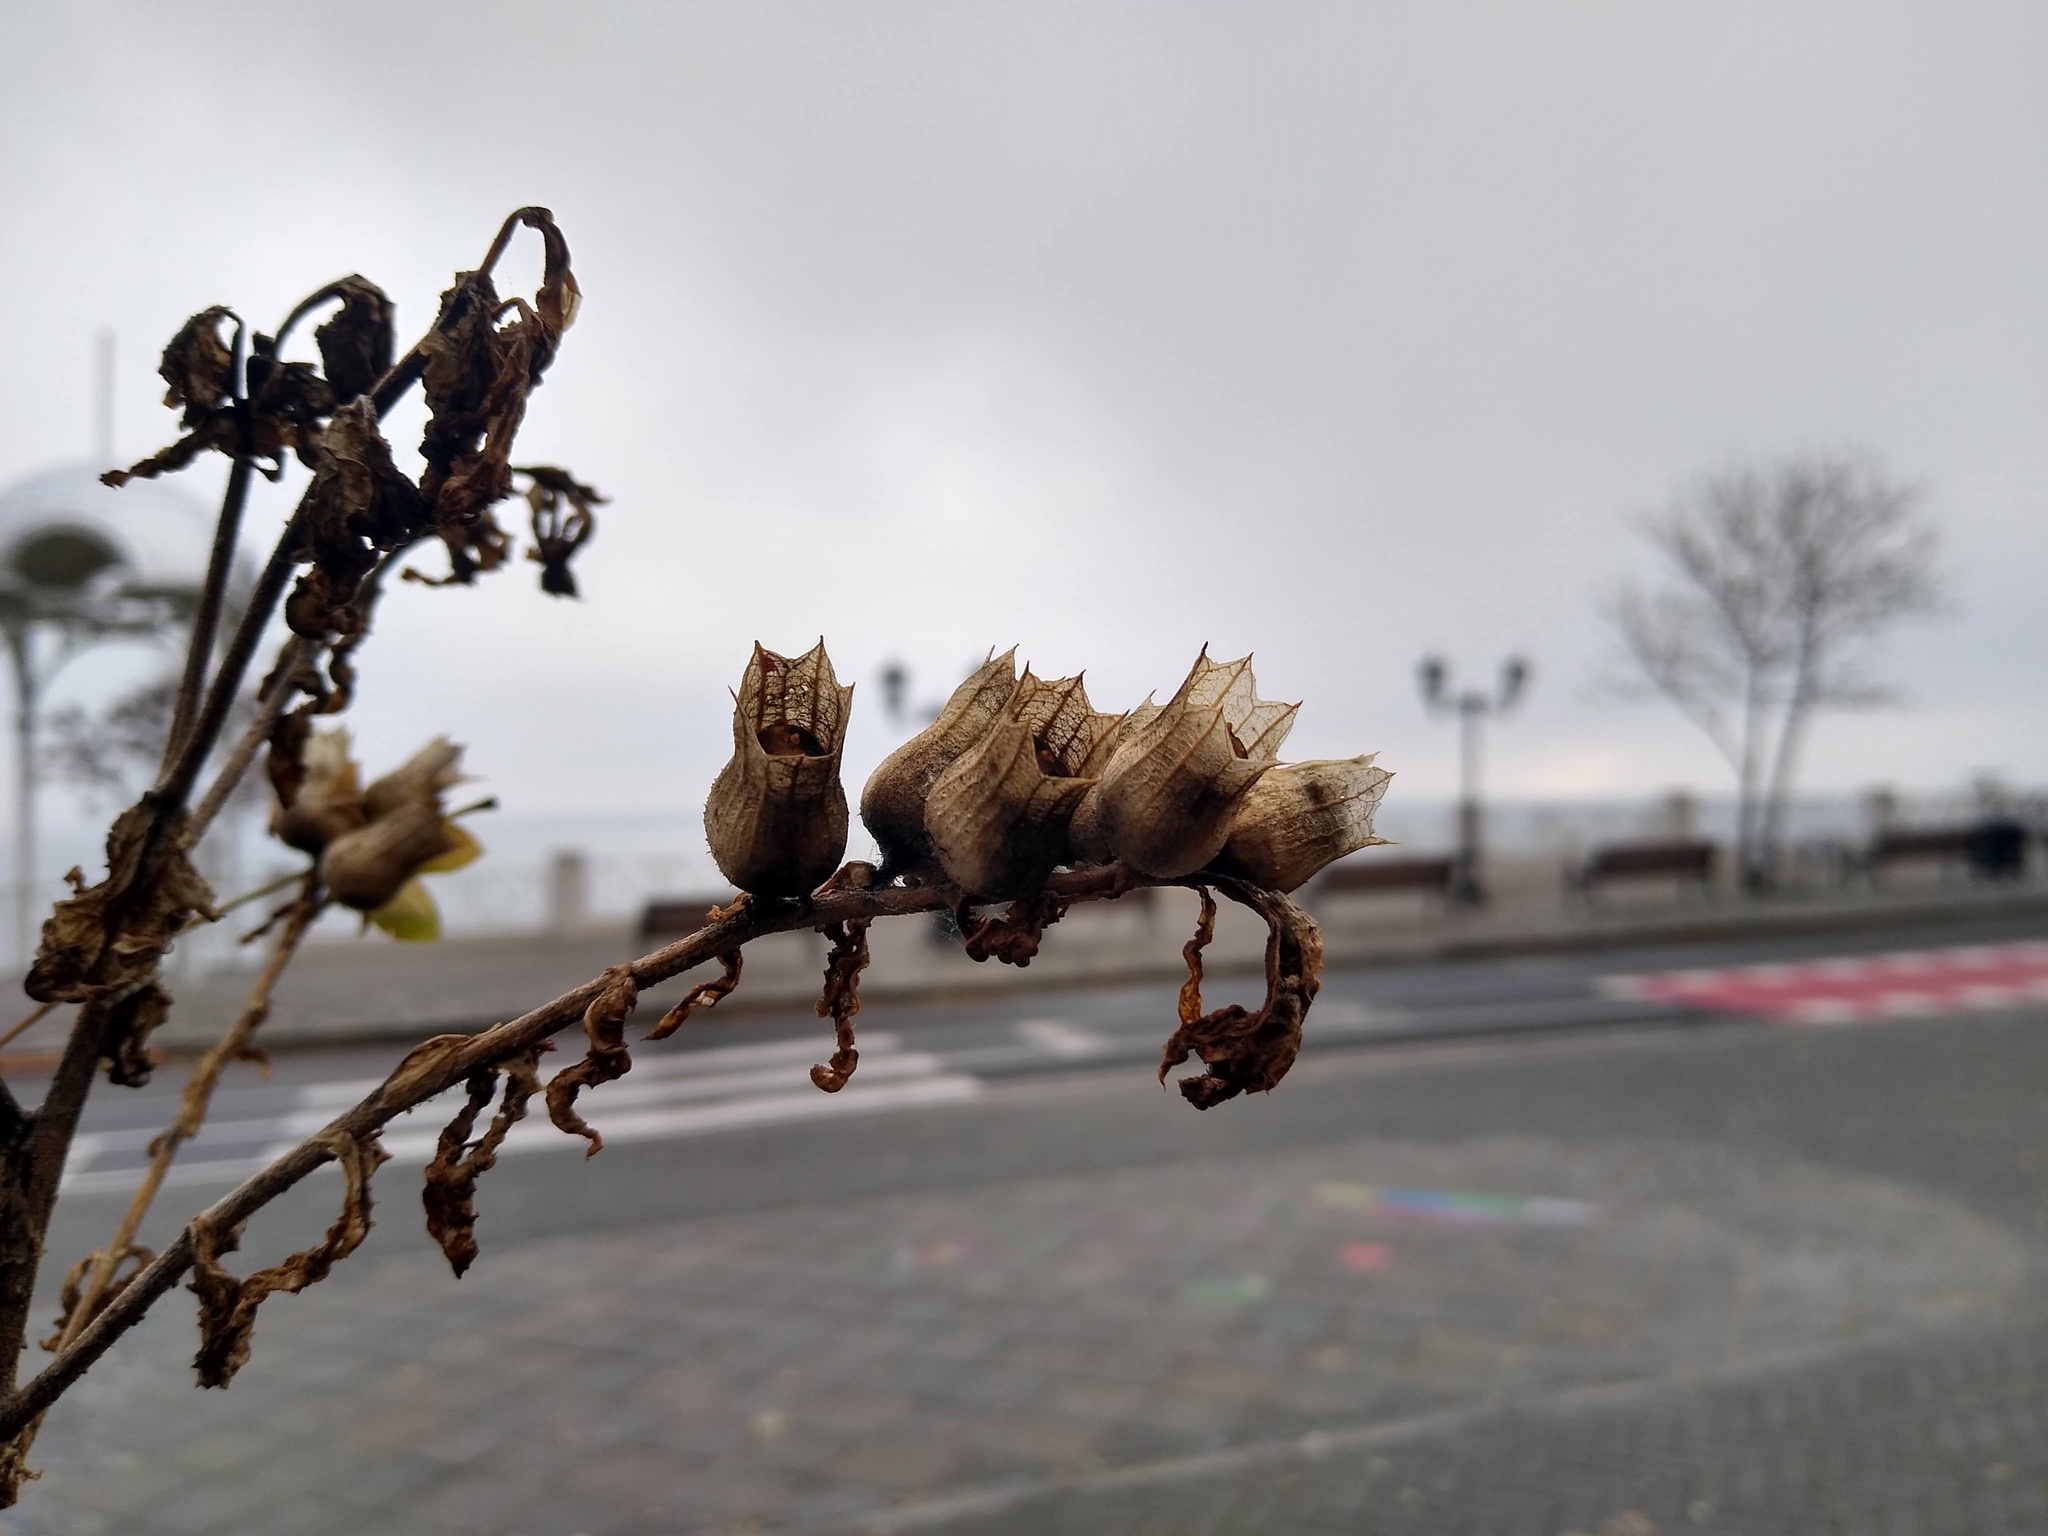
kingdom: Plantae
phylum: Tracheophyta
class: Magnoliopsida
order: Solanales
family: Solanaceae
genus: Hyoscyamus
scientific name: Hyoscyamus niger
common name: Henbane
